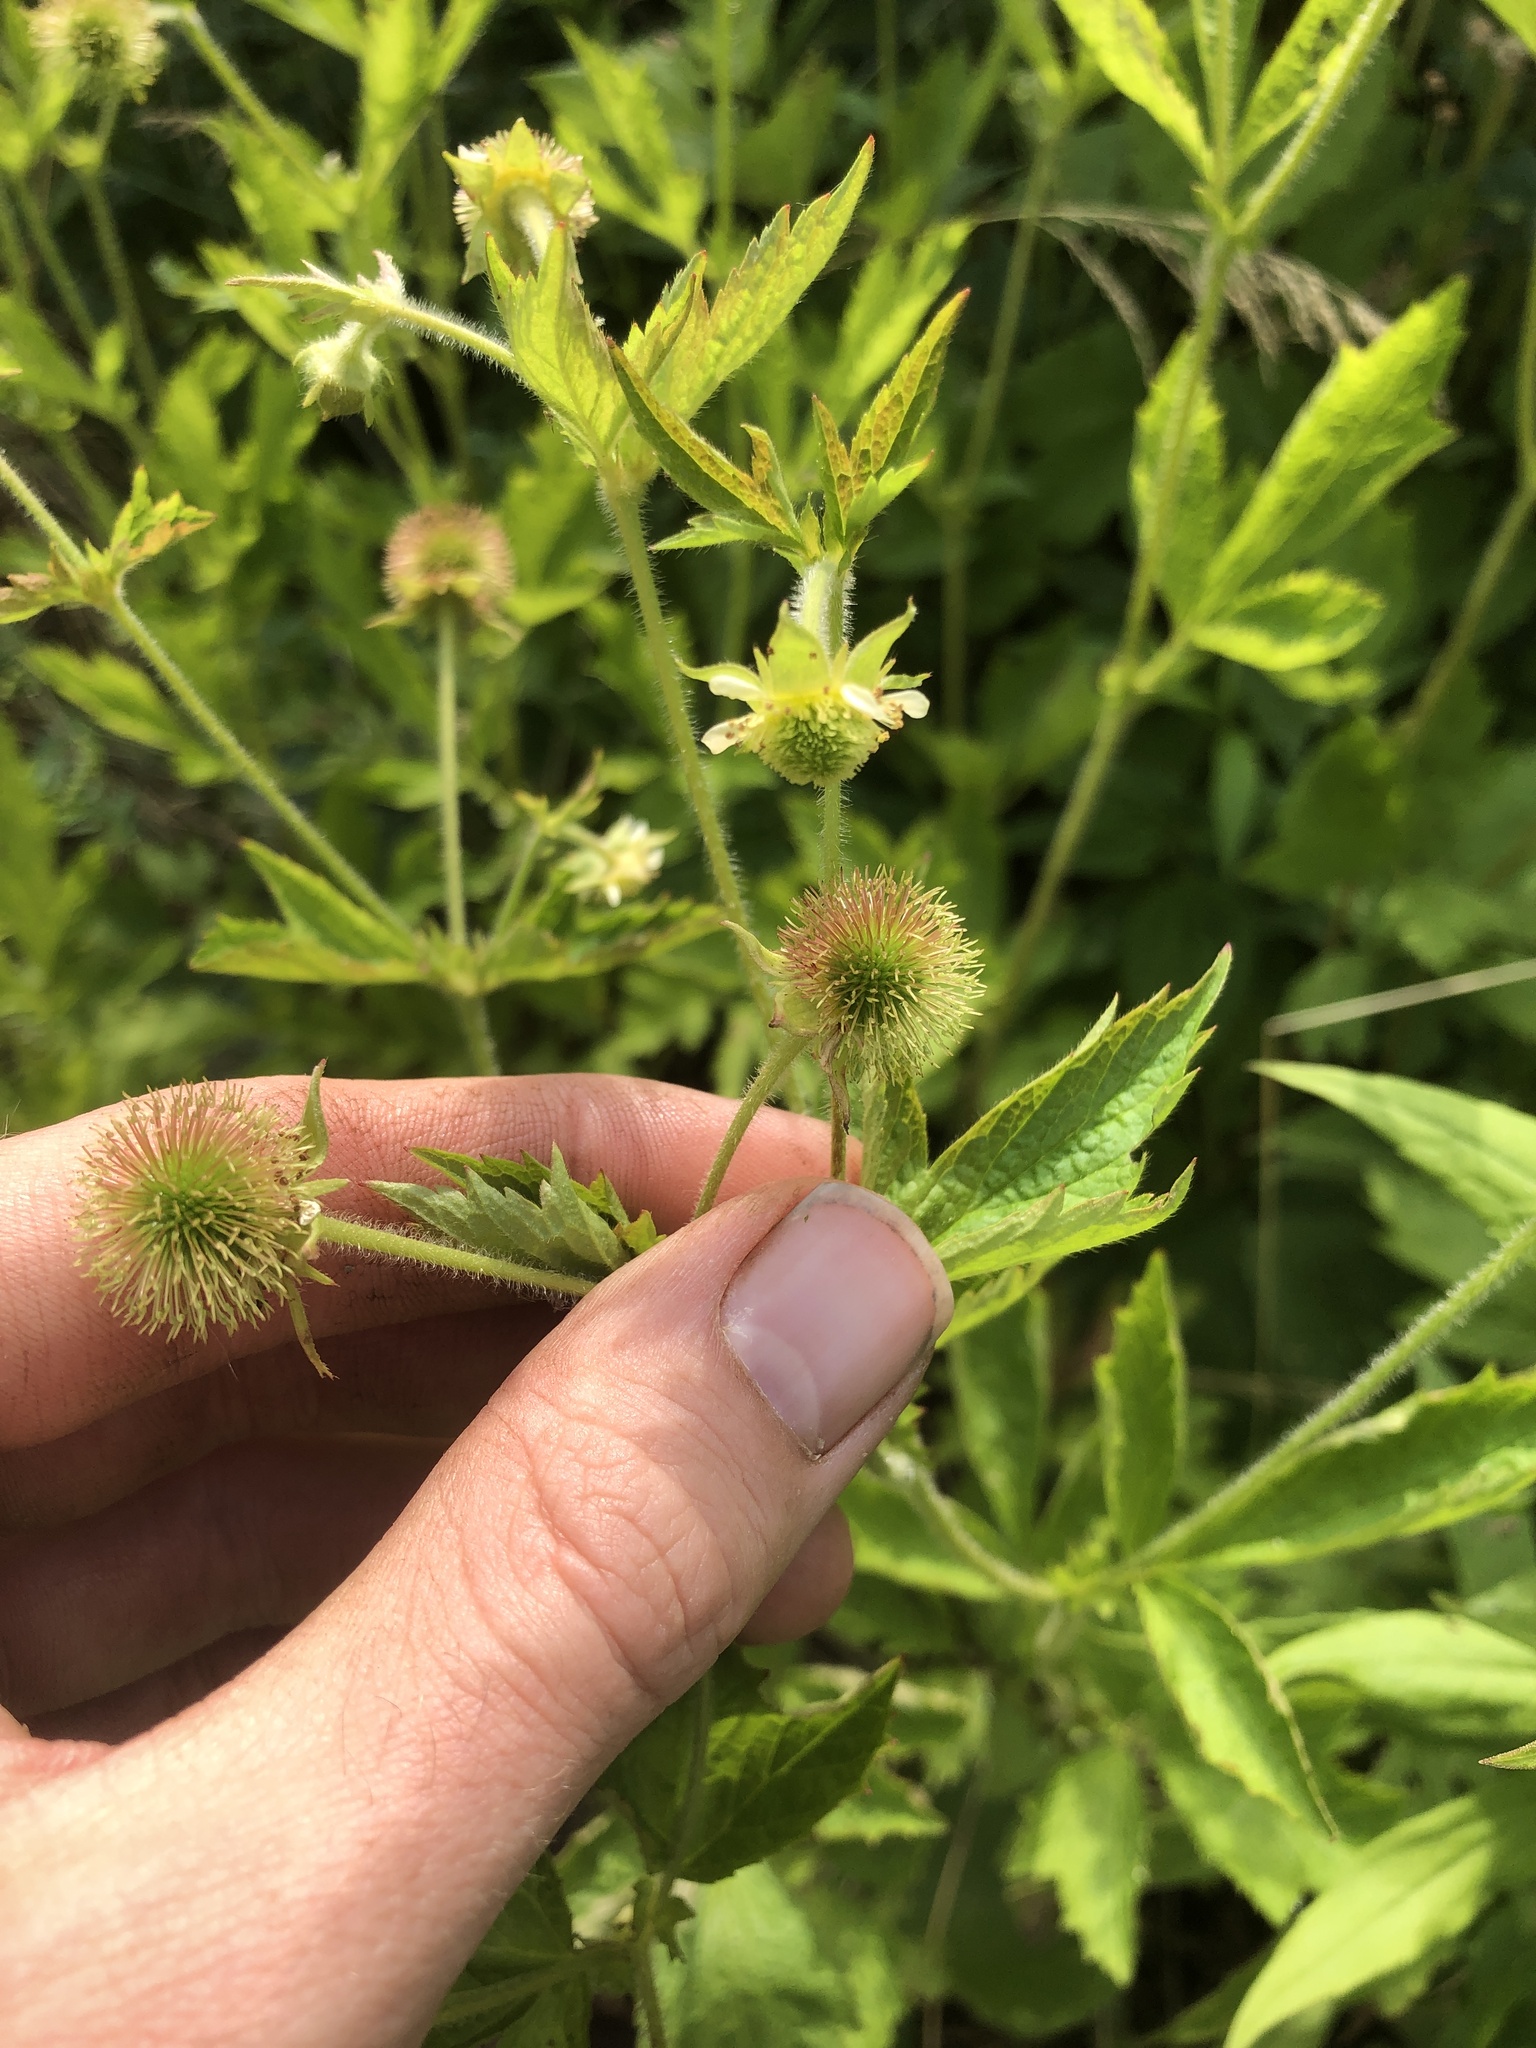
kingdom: Plantae
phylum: Tracheophyta
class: Magnoliopsida
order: Rosales
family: Rosaceae
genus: Geum
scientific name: Geum laciniatum
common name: Rough avens
